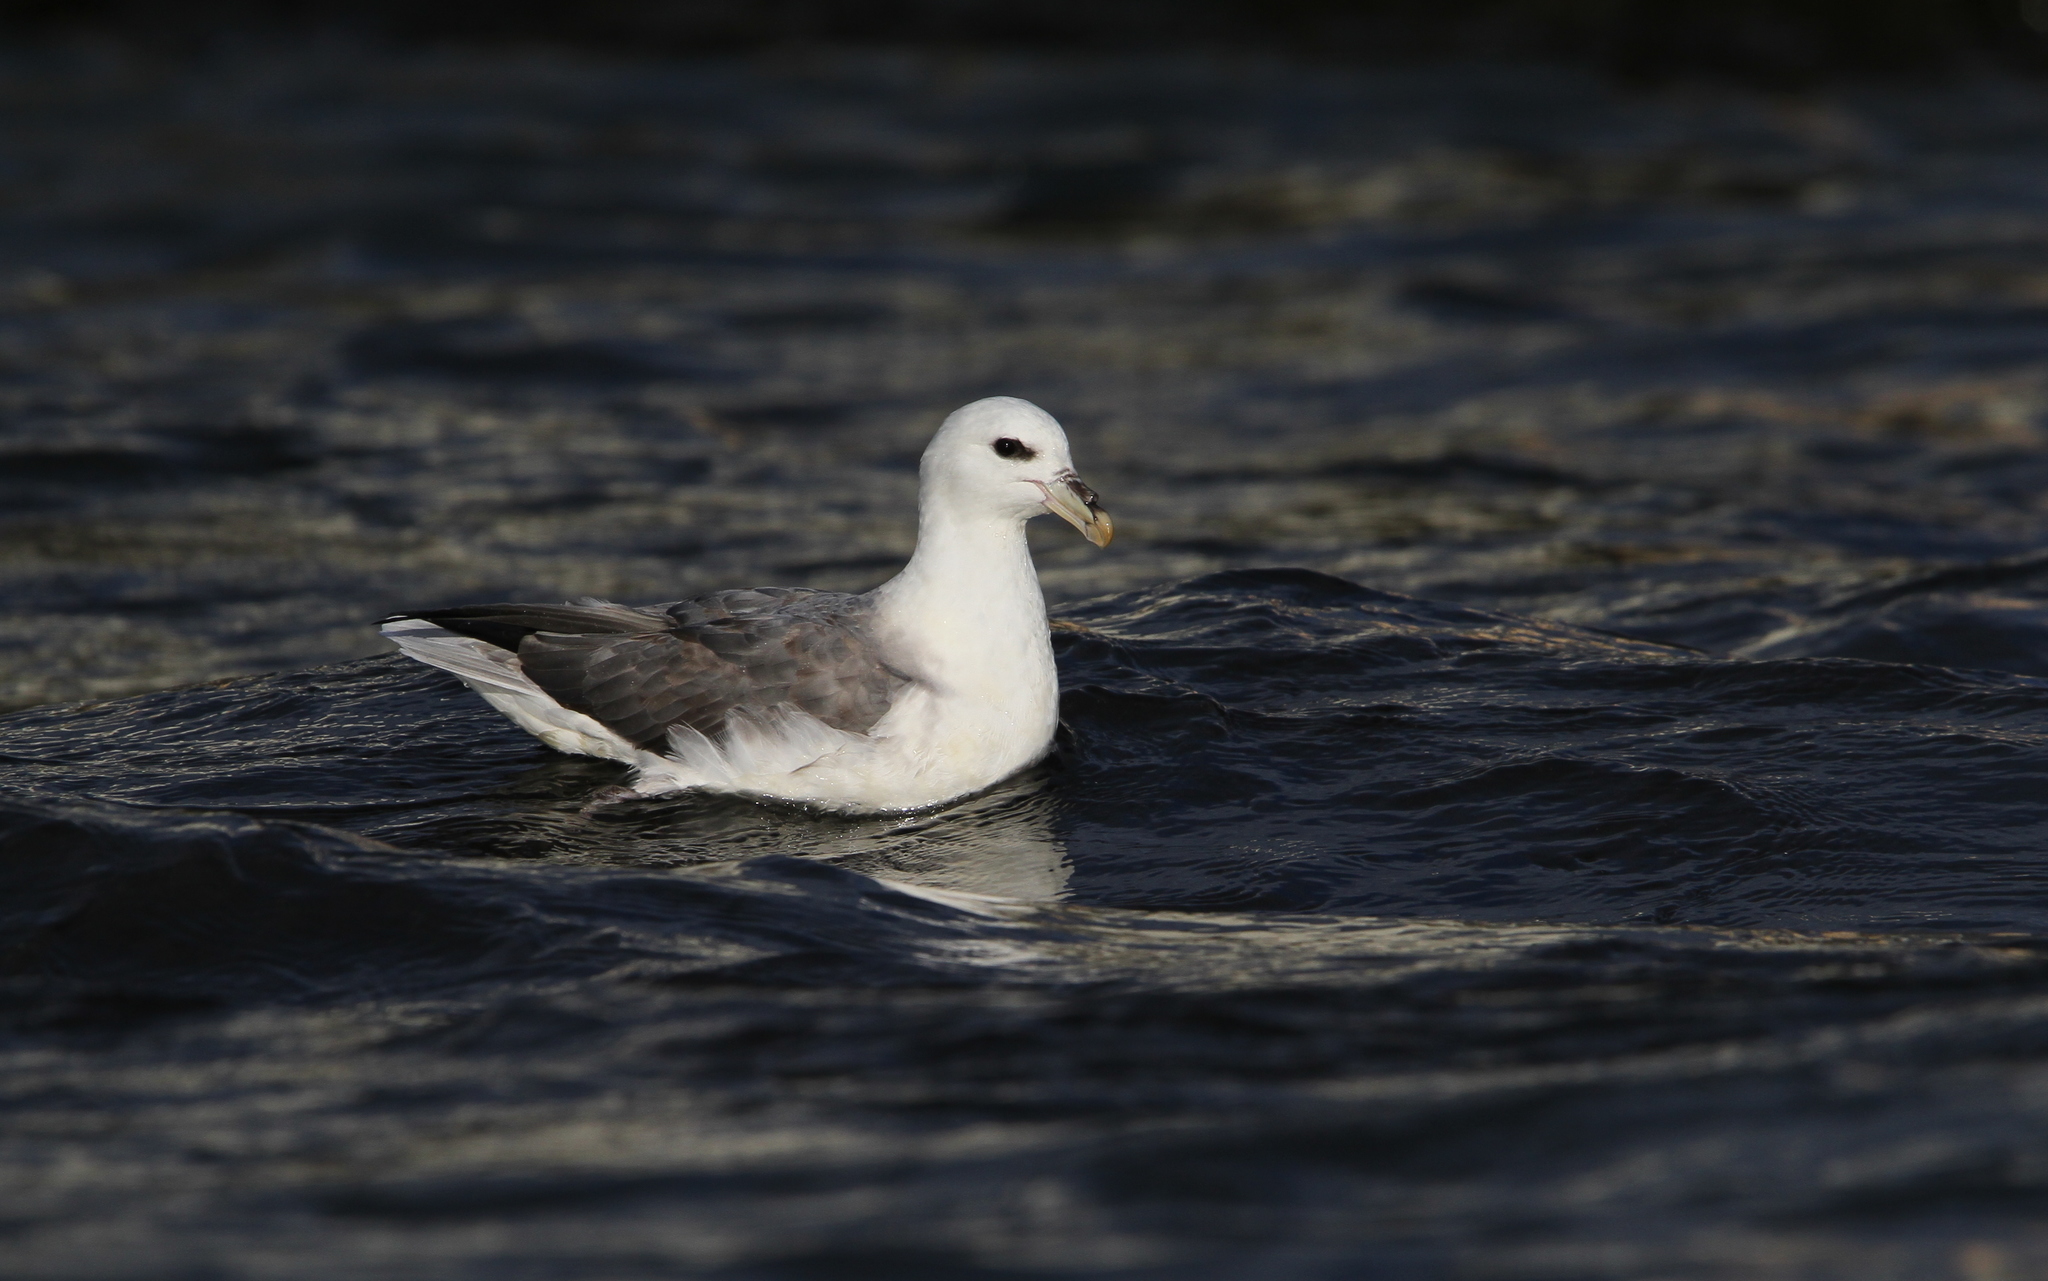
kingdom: Animalia
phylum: Chordata
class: Aves
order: Procellariiformes
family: Procellariidae
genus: Fulmarus
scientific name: Fulmarus glacialis
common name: Northern fulmar
